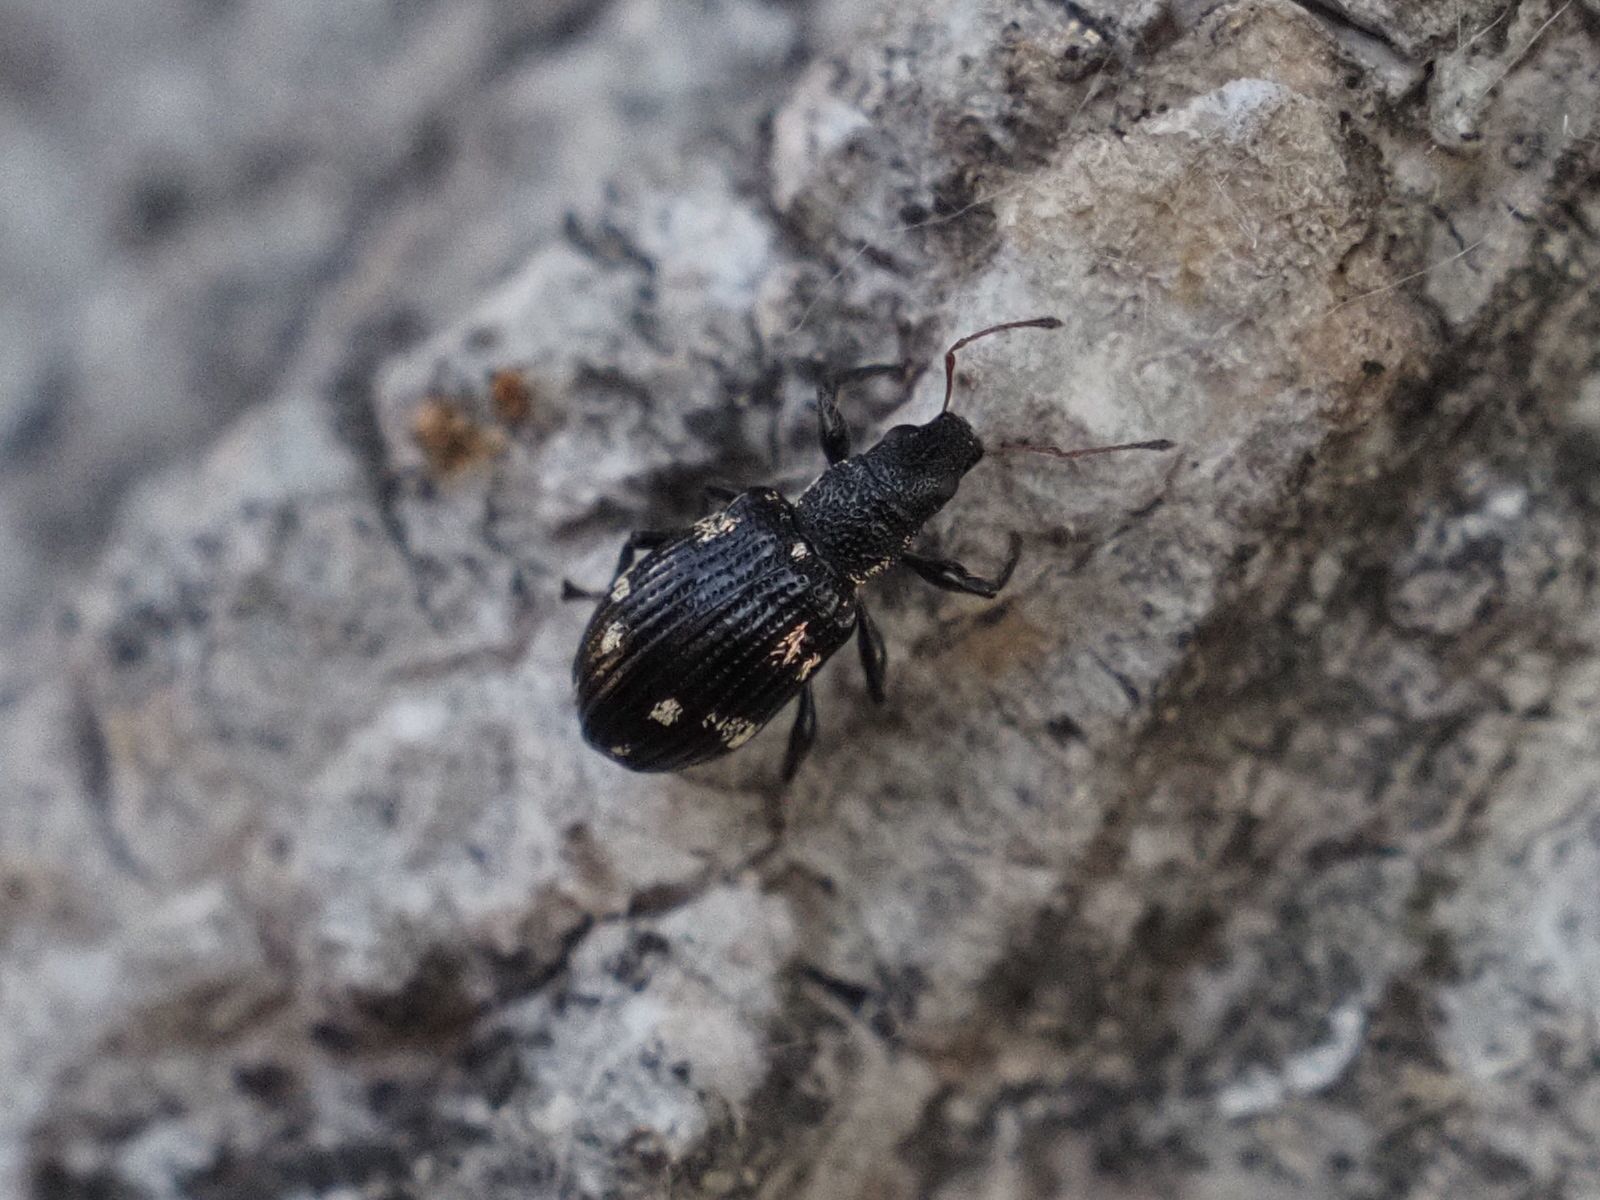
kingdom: Animalia
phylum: Arthropoda
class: Insecta
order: Coleoptera
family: Curculionidae
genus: Polydrusus
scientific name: Polydrusus picus
